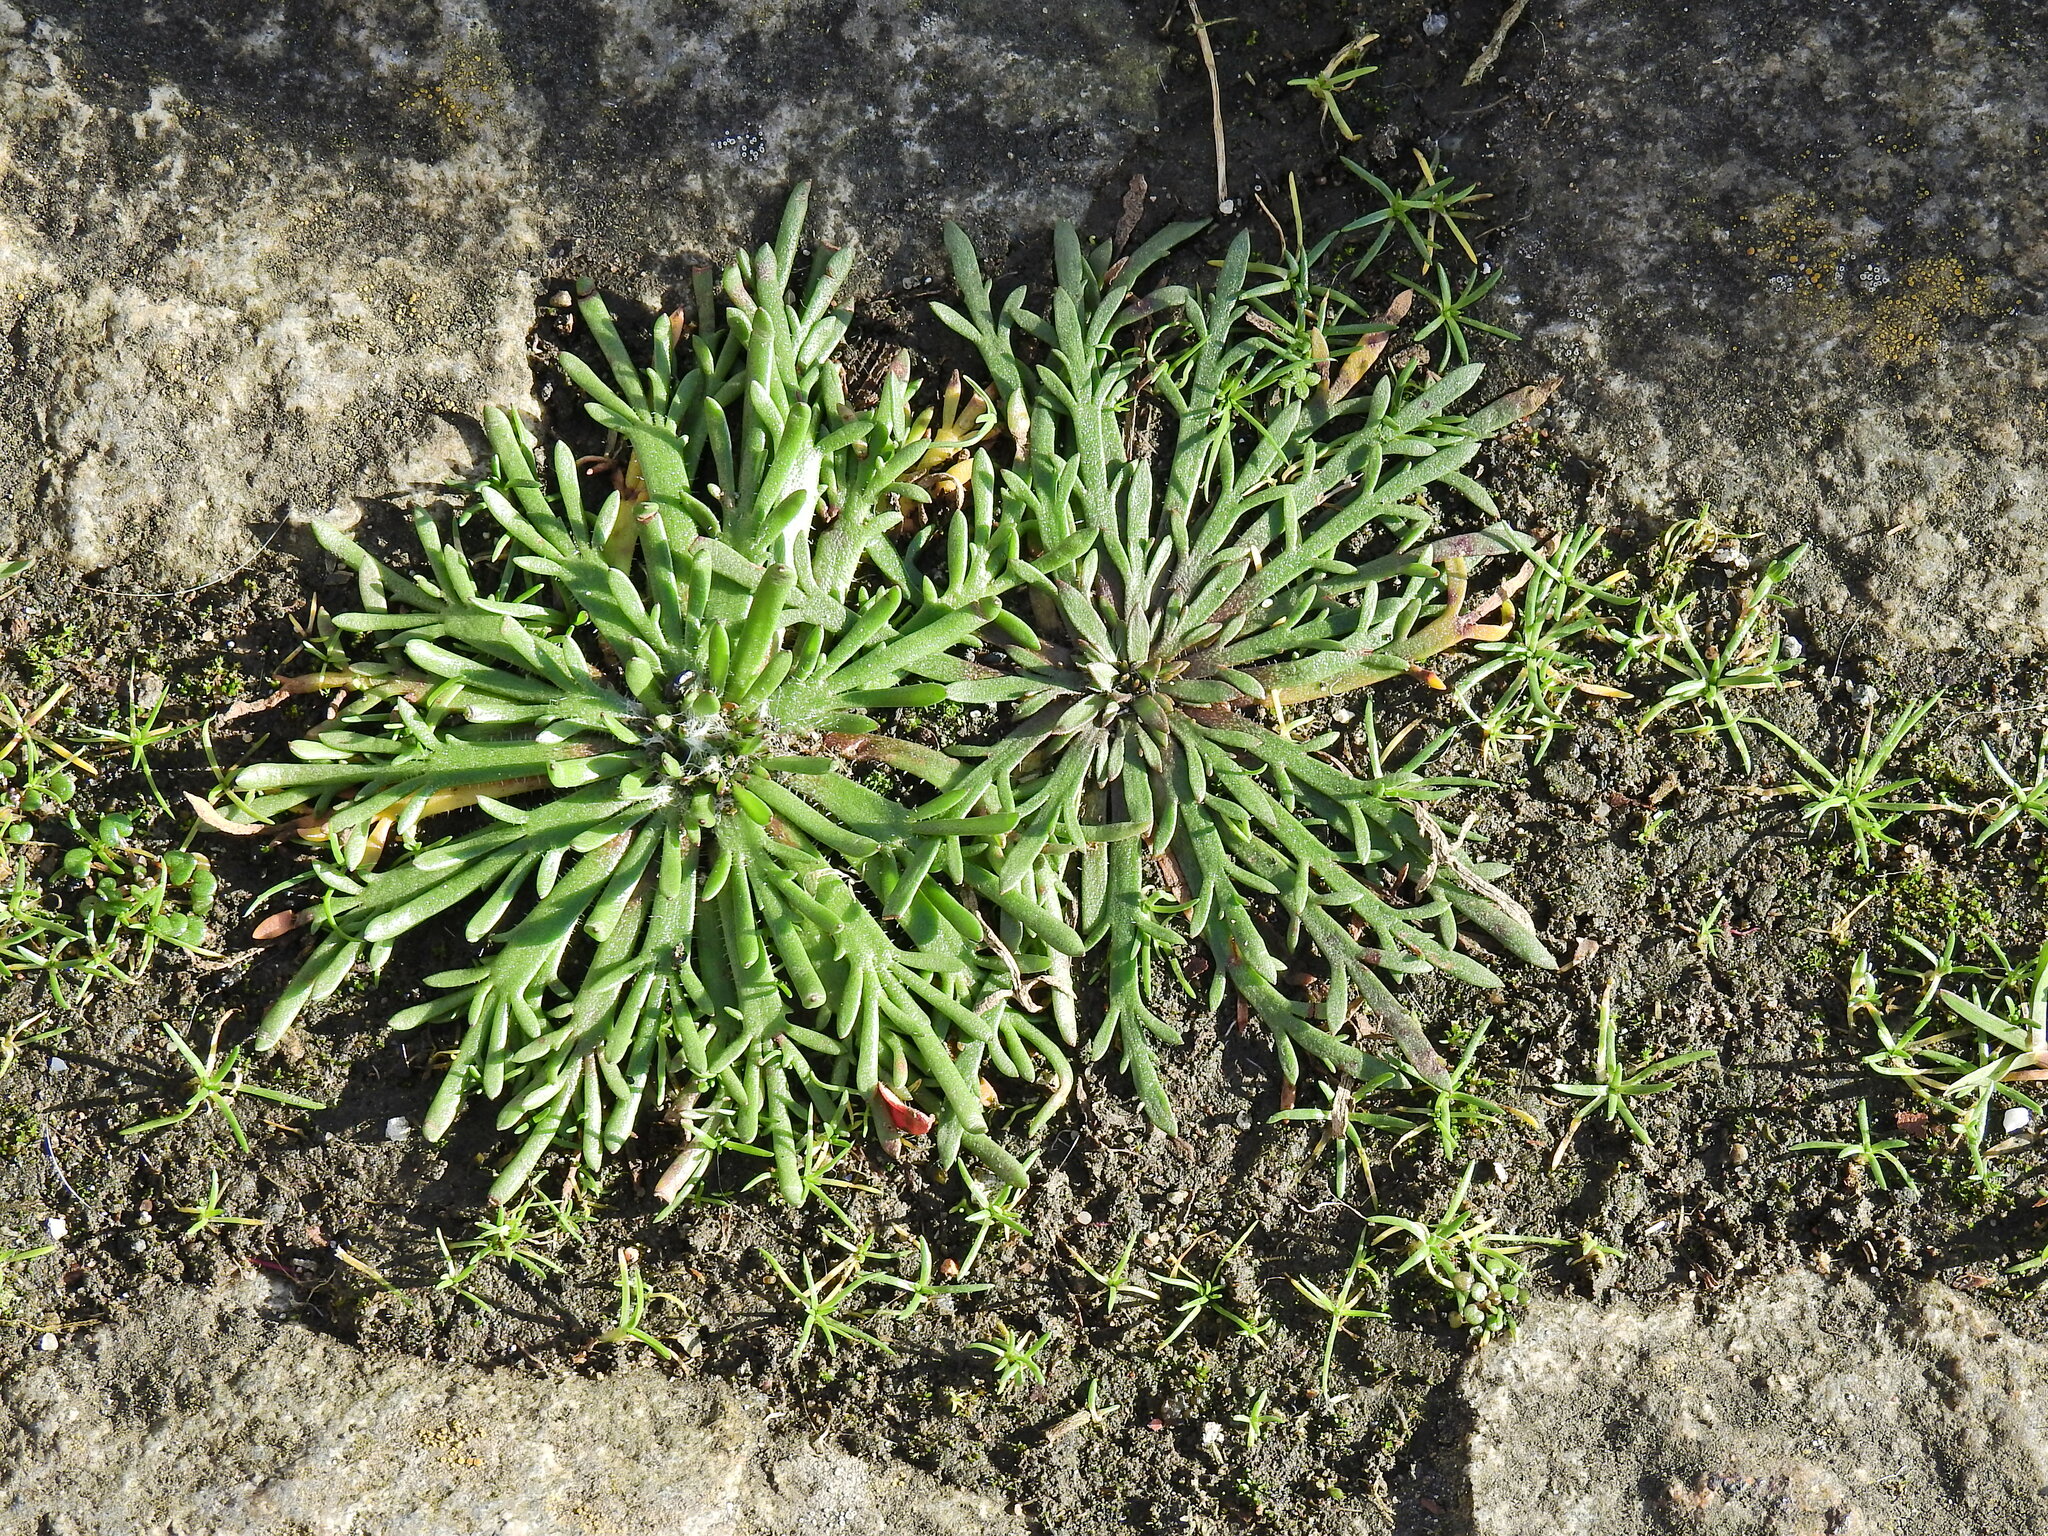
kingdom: Plantae
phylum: Tracheophyta
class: Magnoliopsida
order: Lamiales
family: Plantaginaceae
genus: Plantago
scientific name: Plantago coronopus
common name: Buck's-horn plantain
